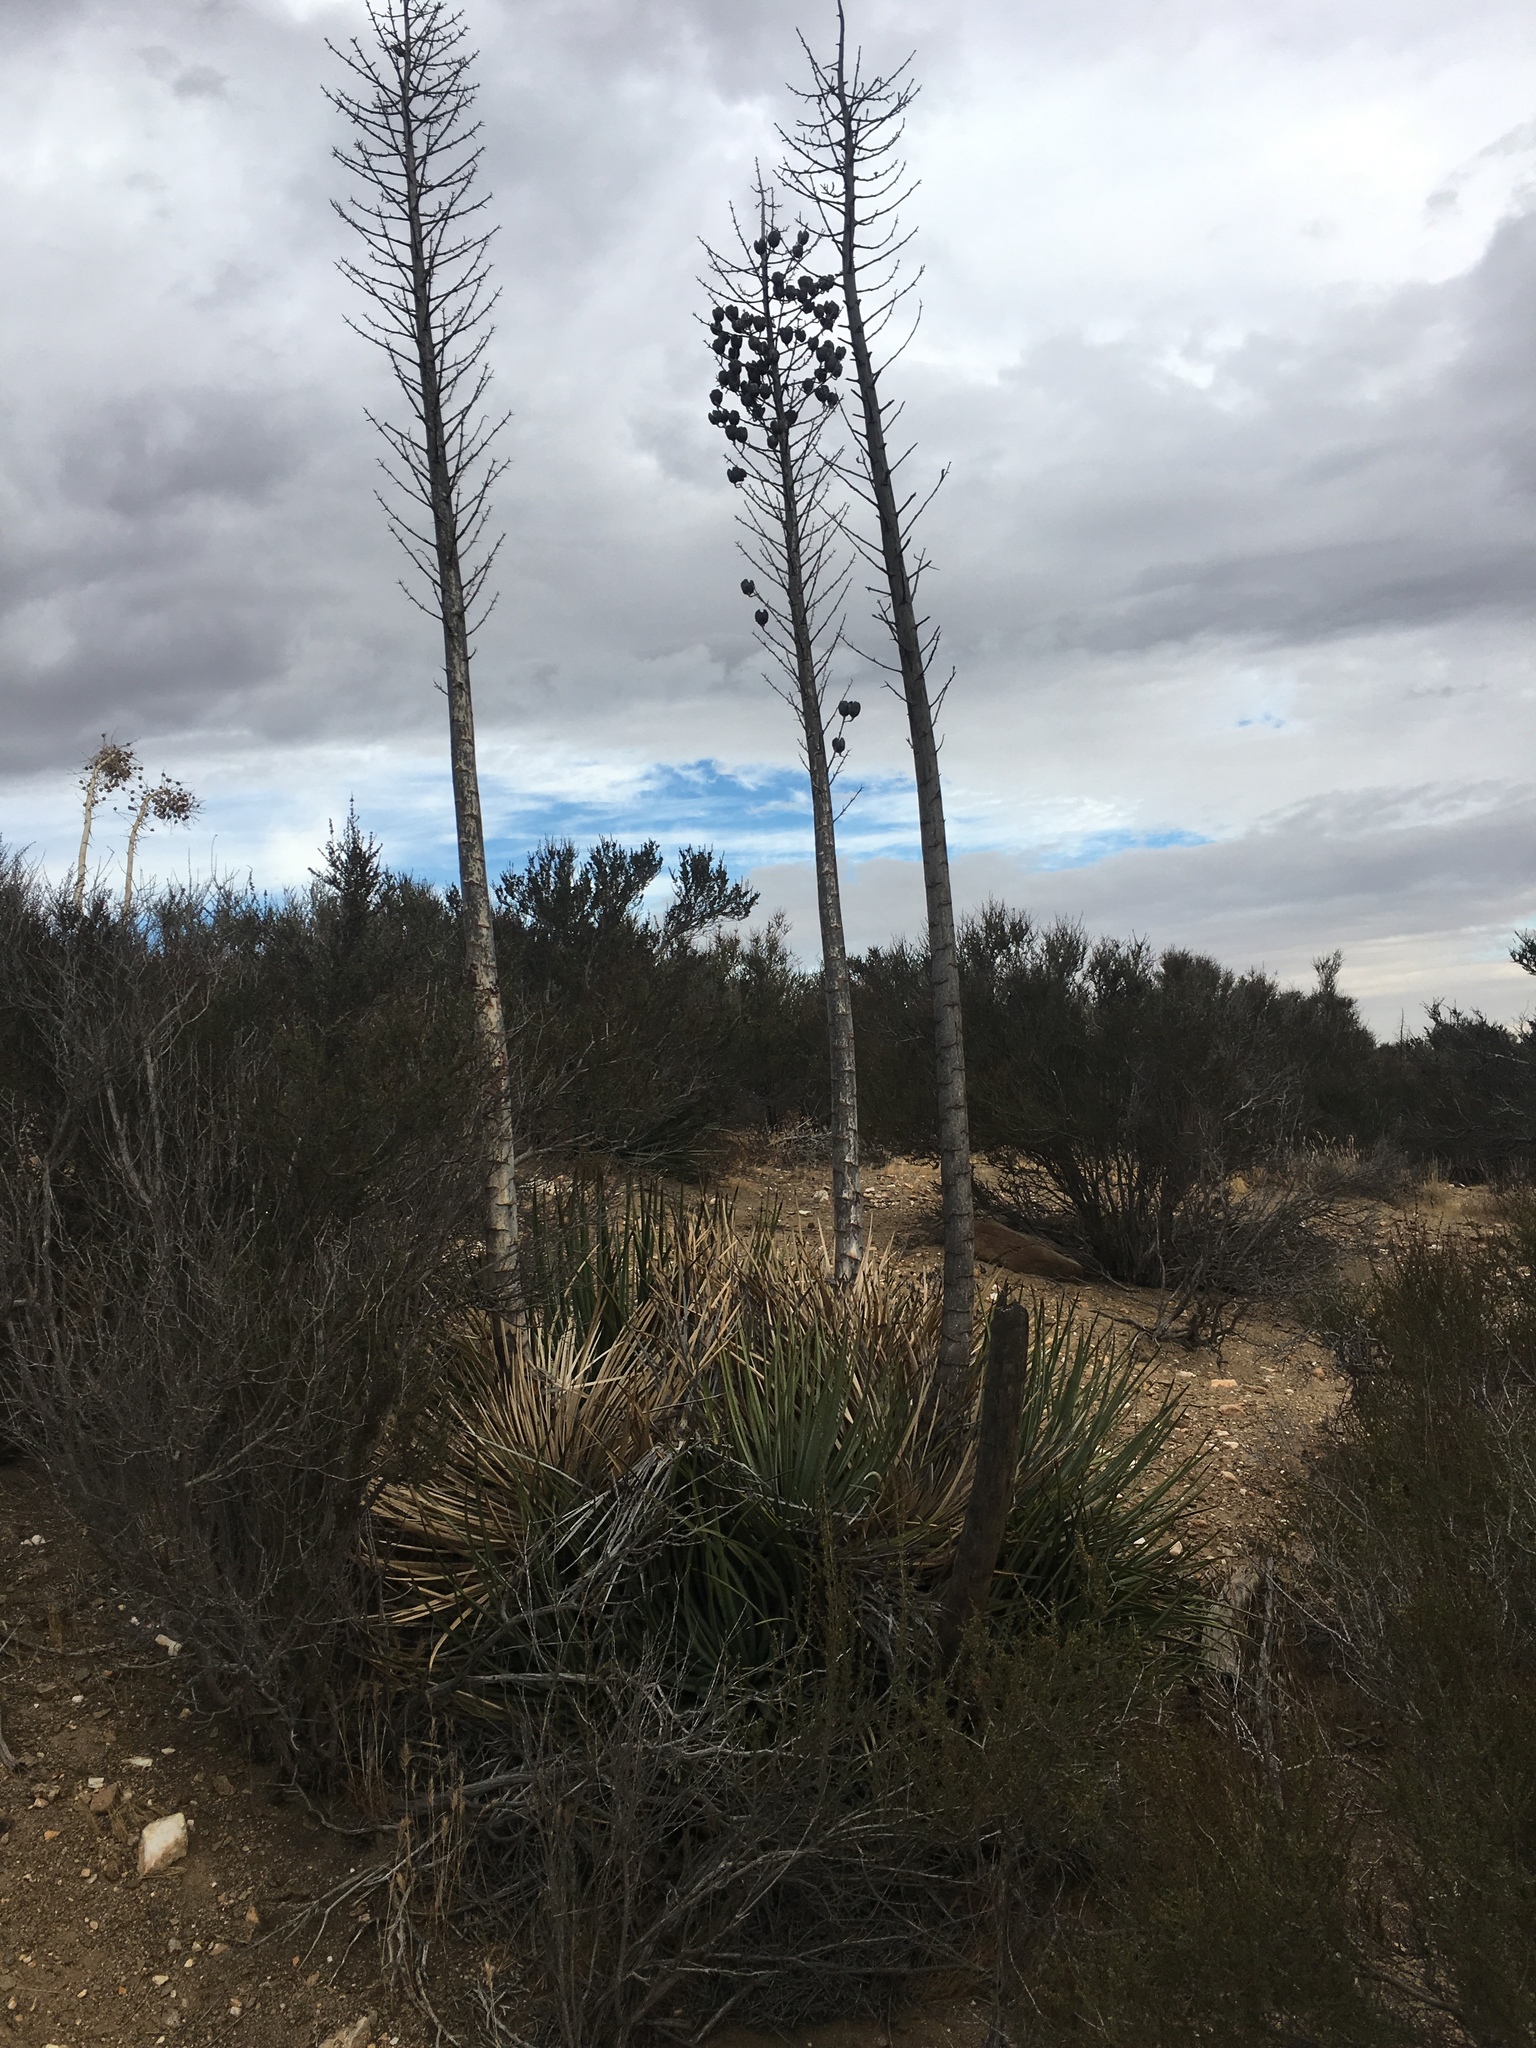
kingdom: Plantae
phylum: Tracheophyta
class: Liliopsida
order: Asparagales
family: Asparagaceae
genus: Hesperoyucca
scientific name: Hesperoyucca whipplei
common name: Our lord's-candle
